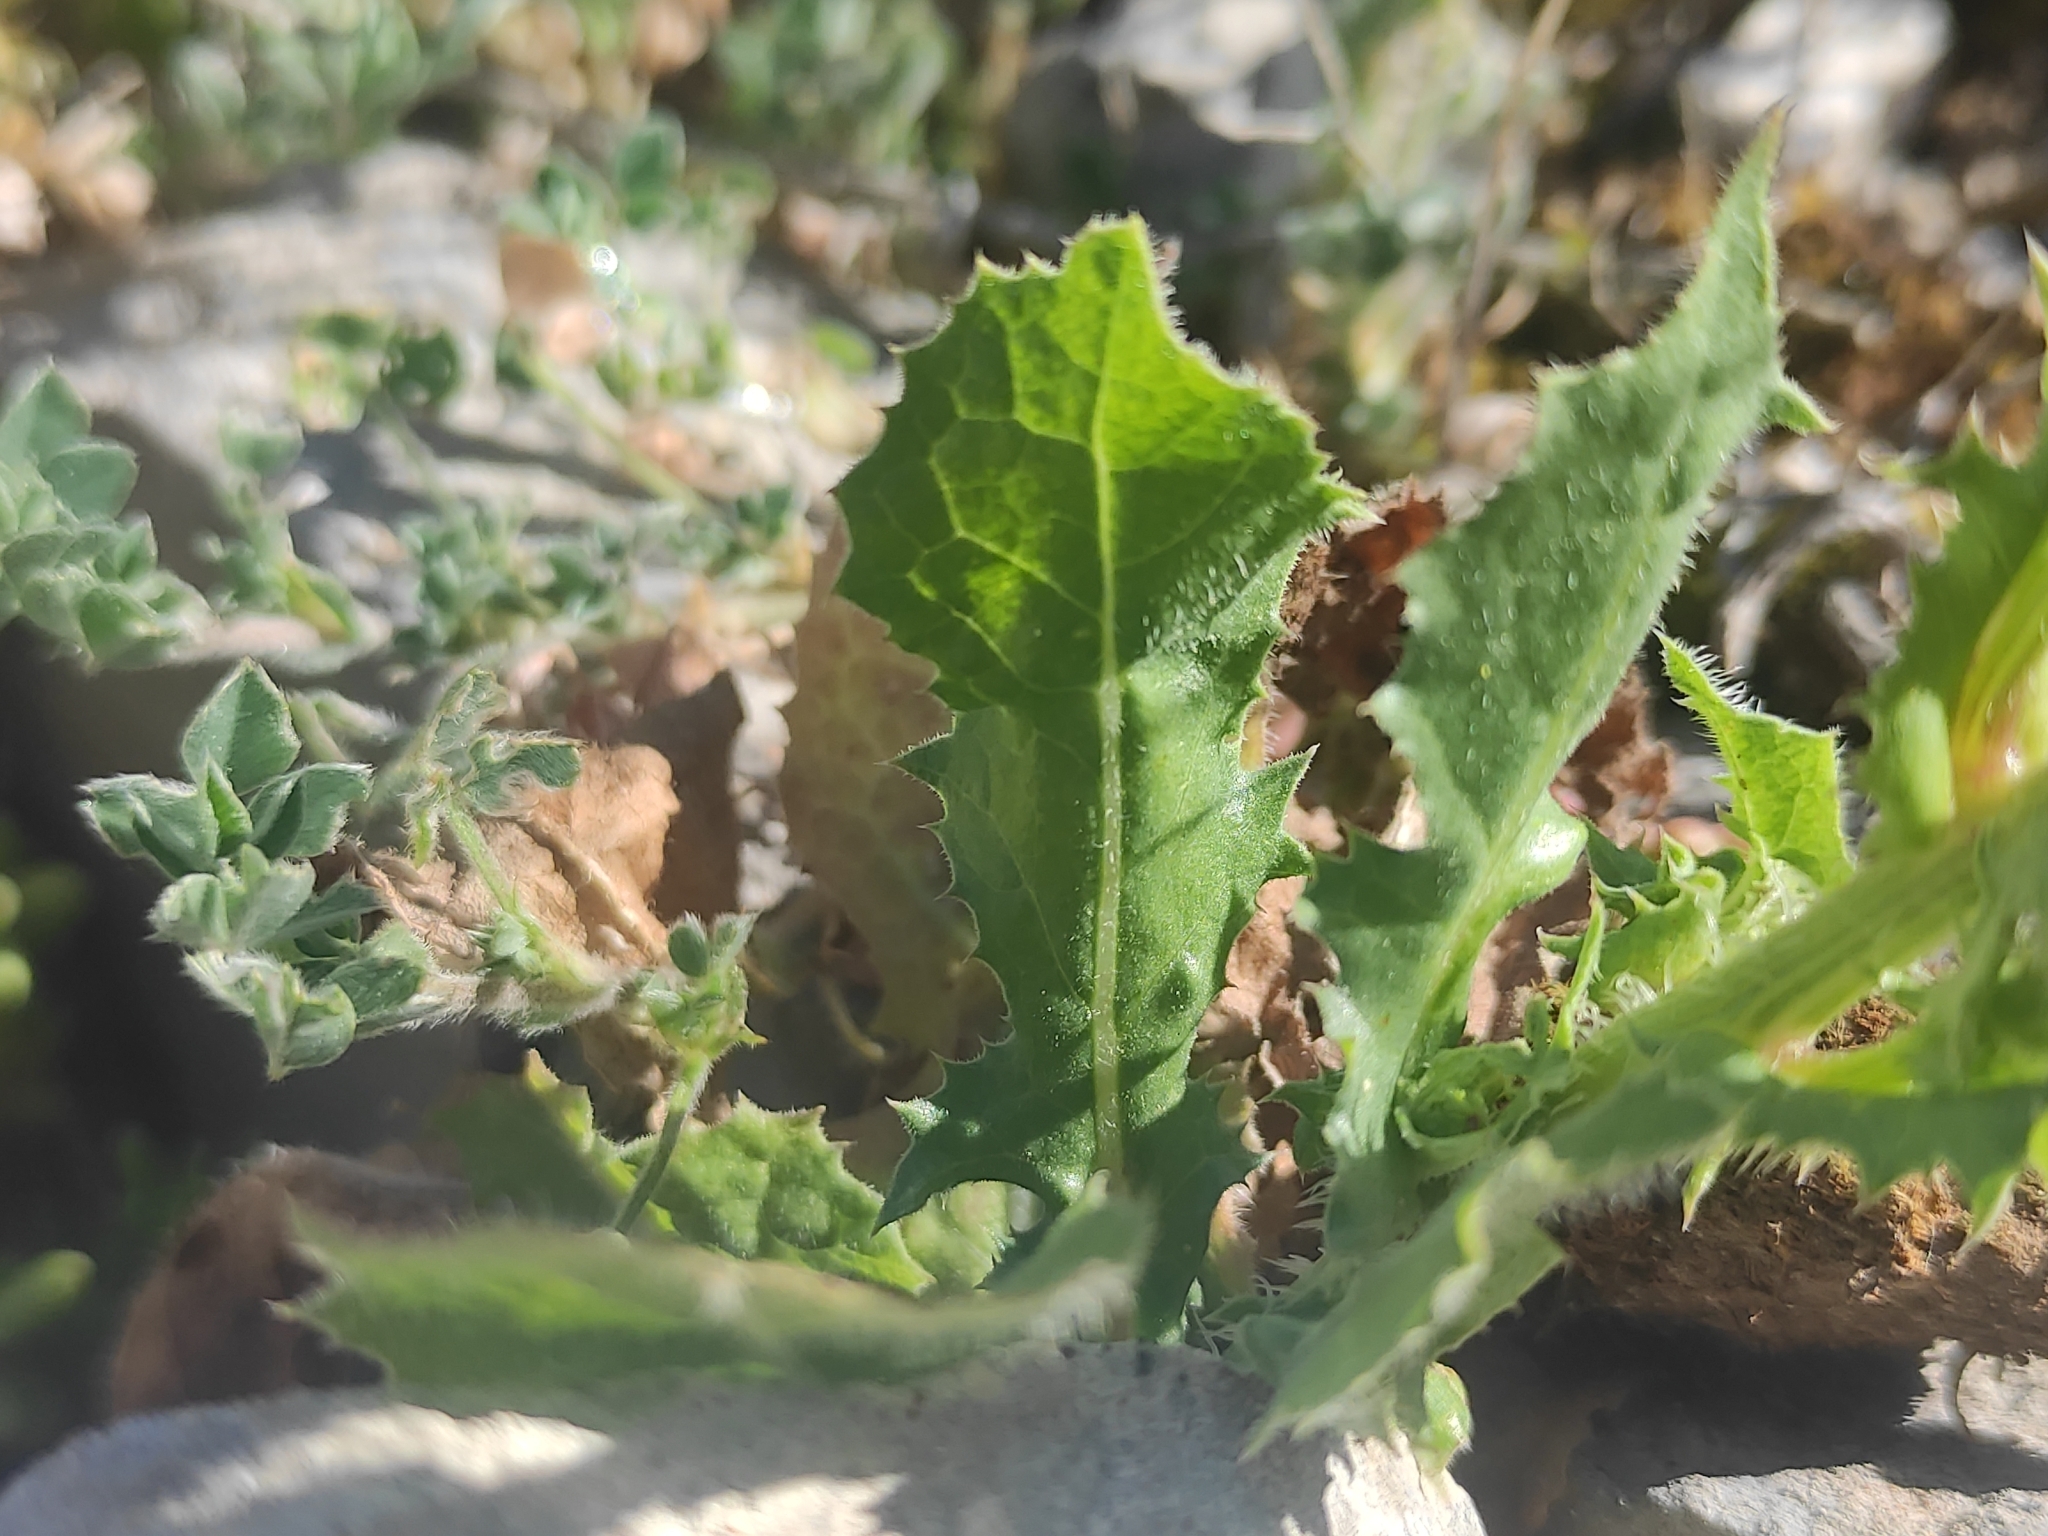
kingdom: Plantae
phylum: Tracheophyta
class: Magnoliopsida
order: Asterales
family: Asteraceae
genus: Urospermum
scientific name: Urospermum picroides
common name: False hawkbit
